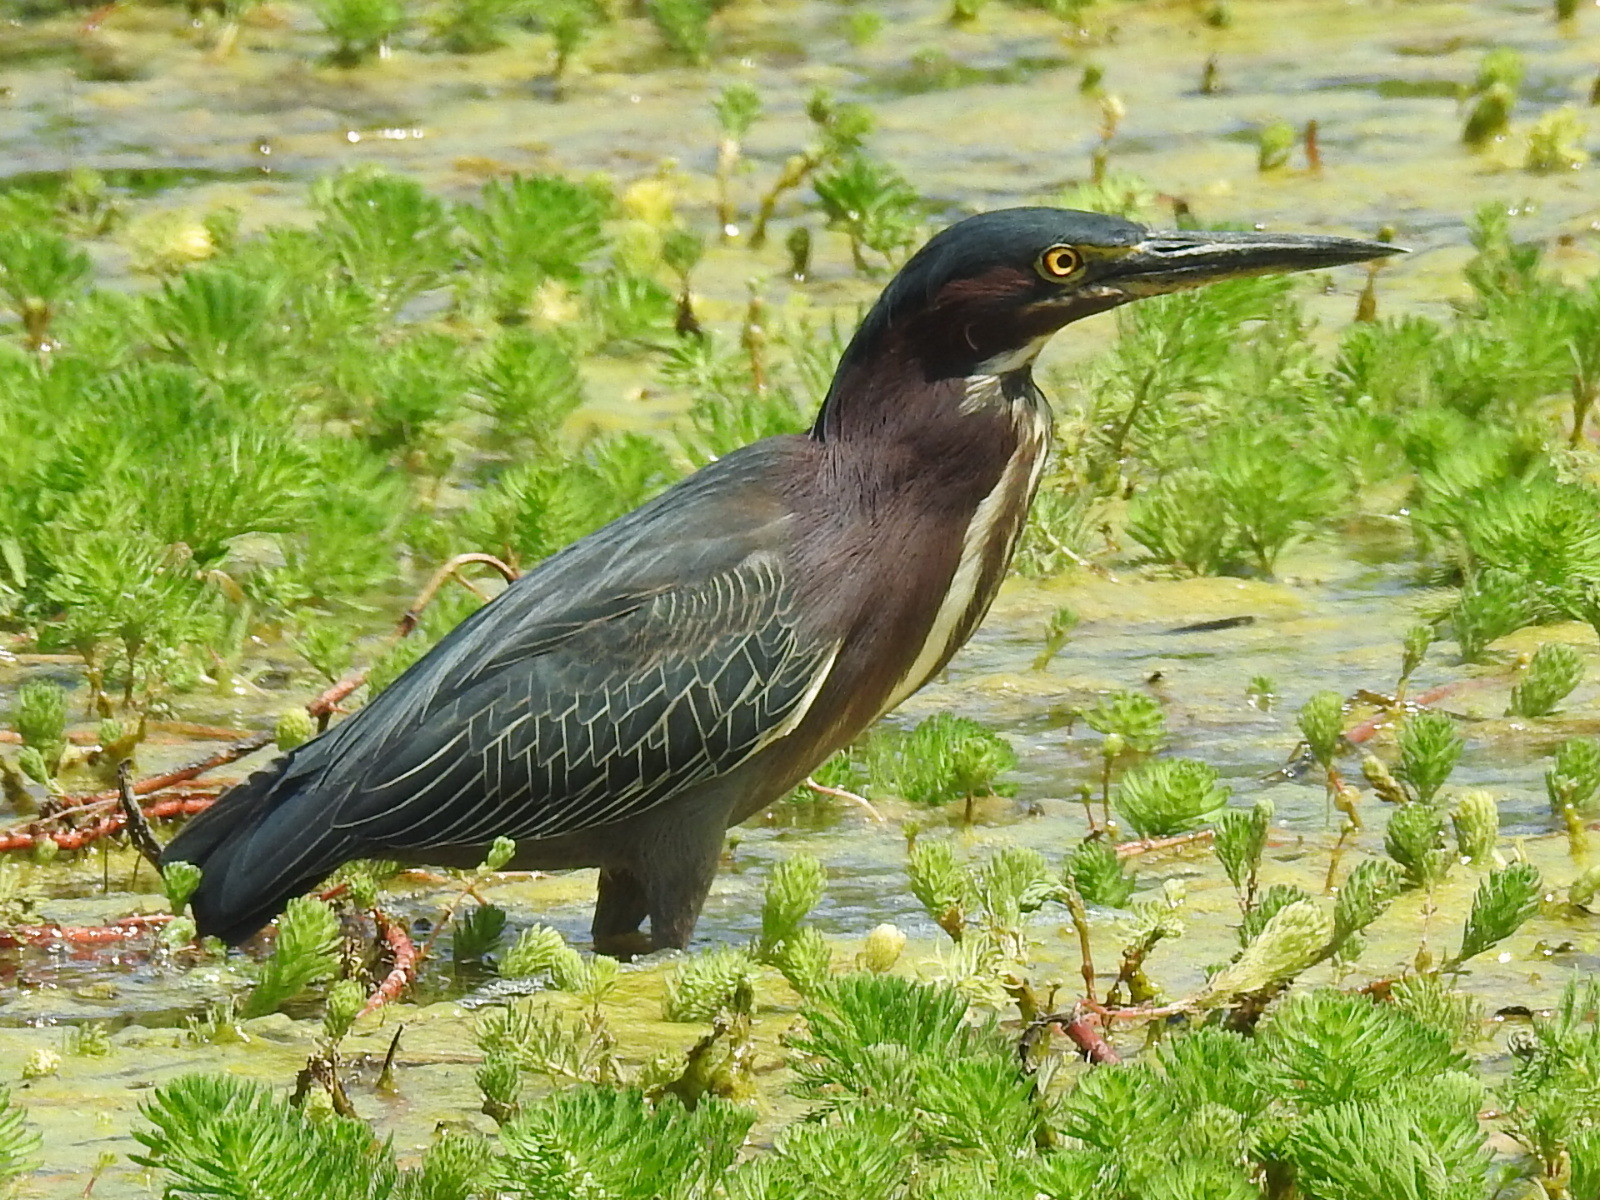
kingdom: Animalia
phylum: Chordata
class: Aves
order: Pelecaniformes
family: Ardeidae
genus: Butorides
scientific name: Butorides virescens
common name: Green heron
